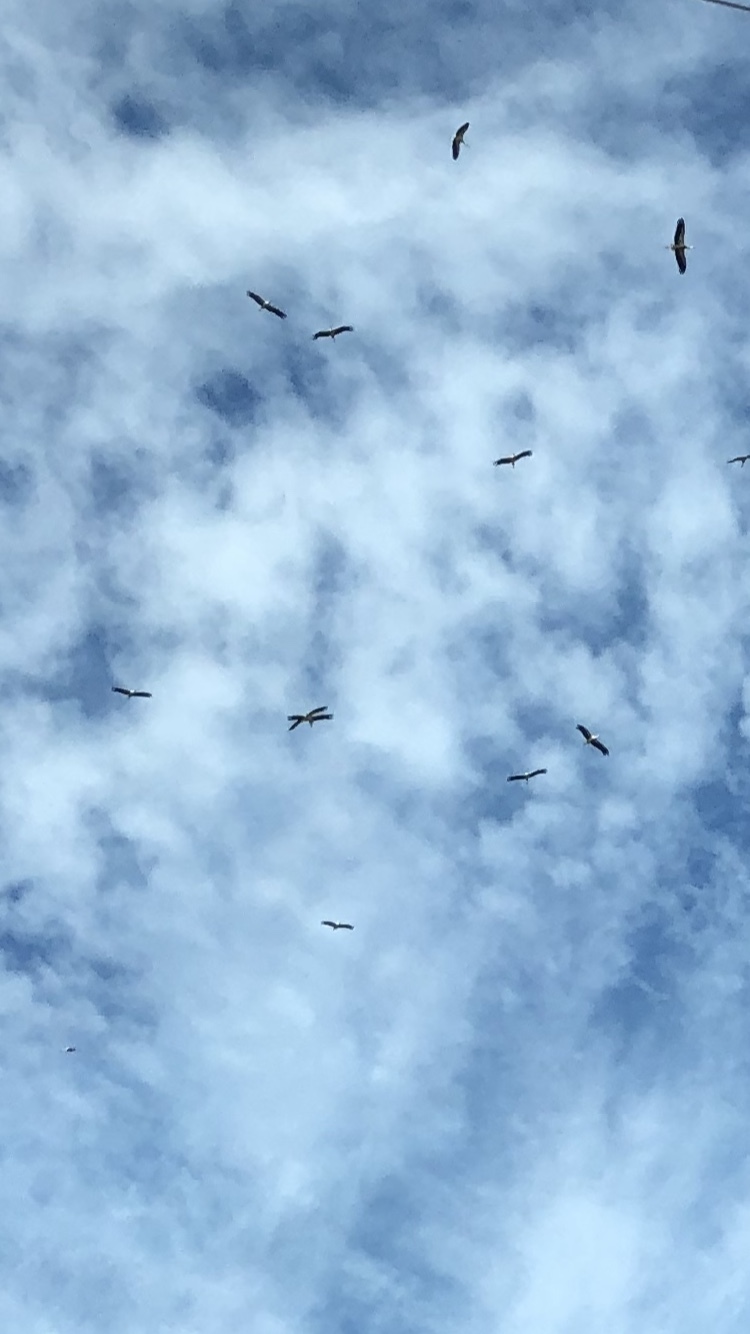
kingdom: Animalia
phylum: Chordata
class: Aves
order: Ciconiiformes
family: Ciconiidae
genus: Ciconia
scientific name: Ciconia ciconia
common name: White stork
